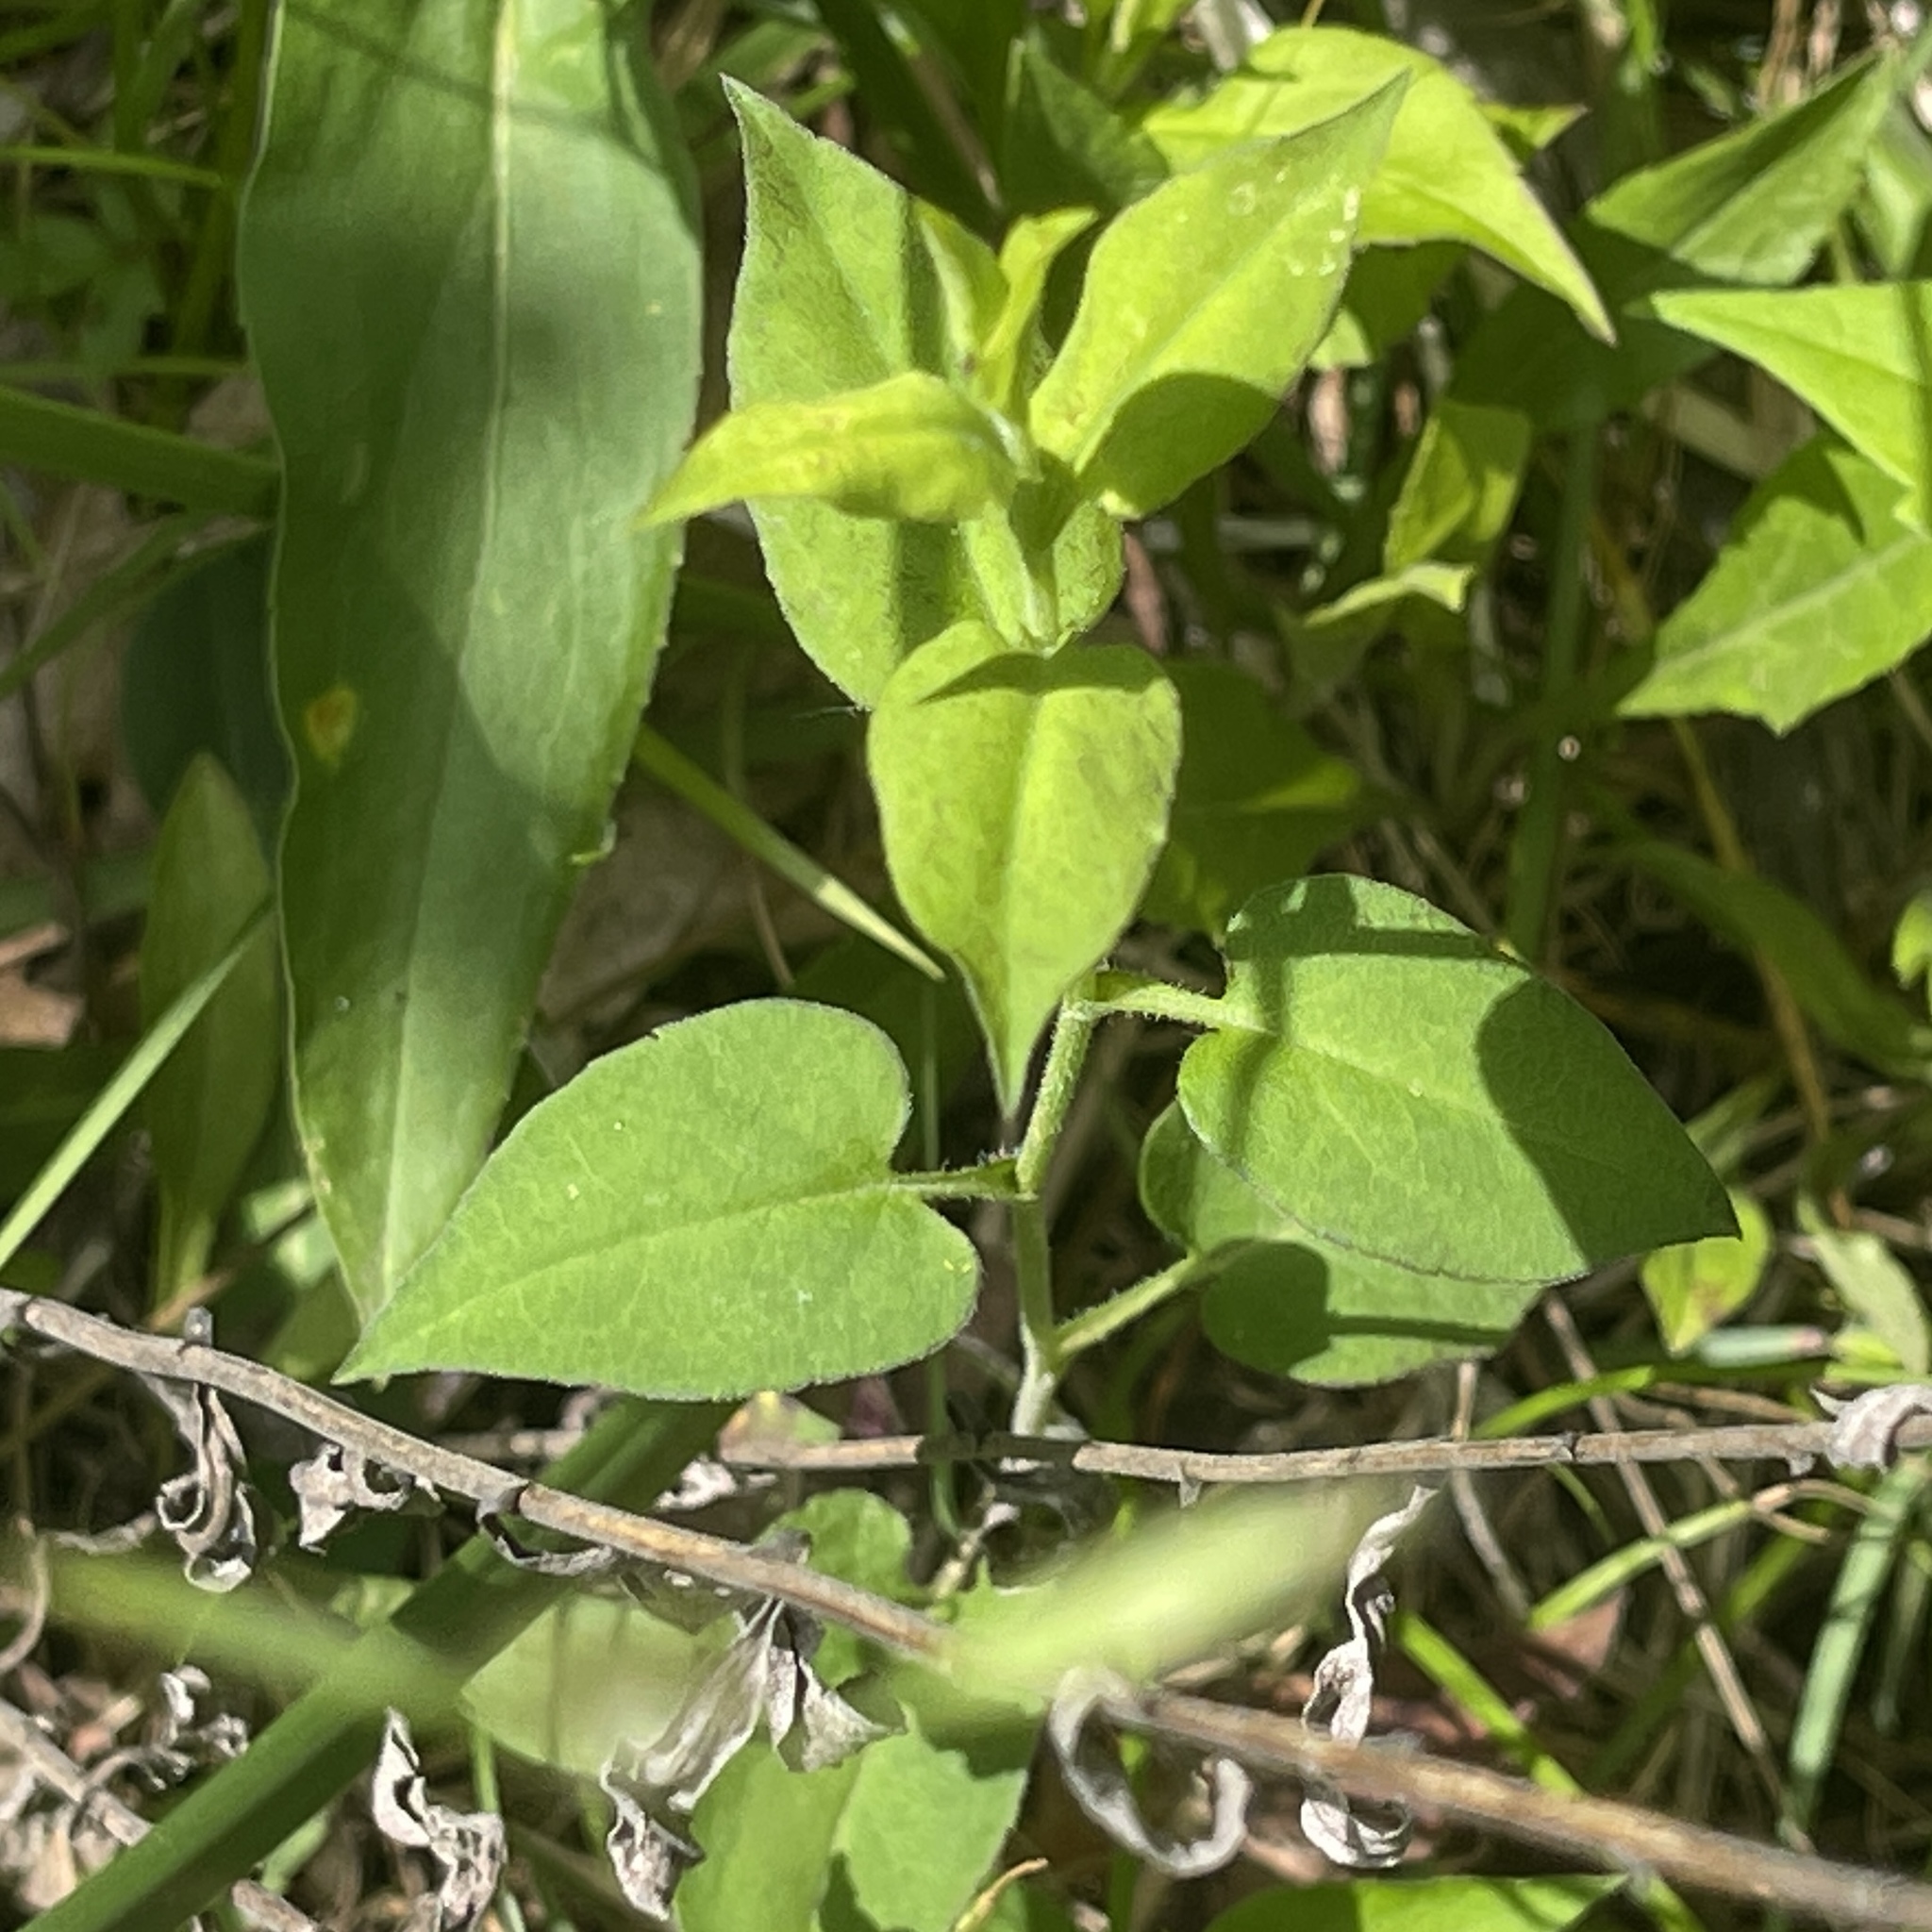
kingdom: Plantae
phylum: Tracheophyta
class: Magnoliopsida
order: Asterales
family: Asteraceae
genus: Symphyotrichum
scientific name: Symphyotrichum undulatum
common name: Clasping heart-leaf aster
